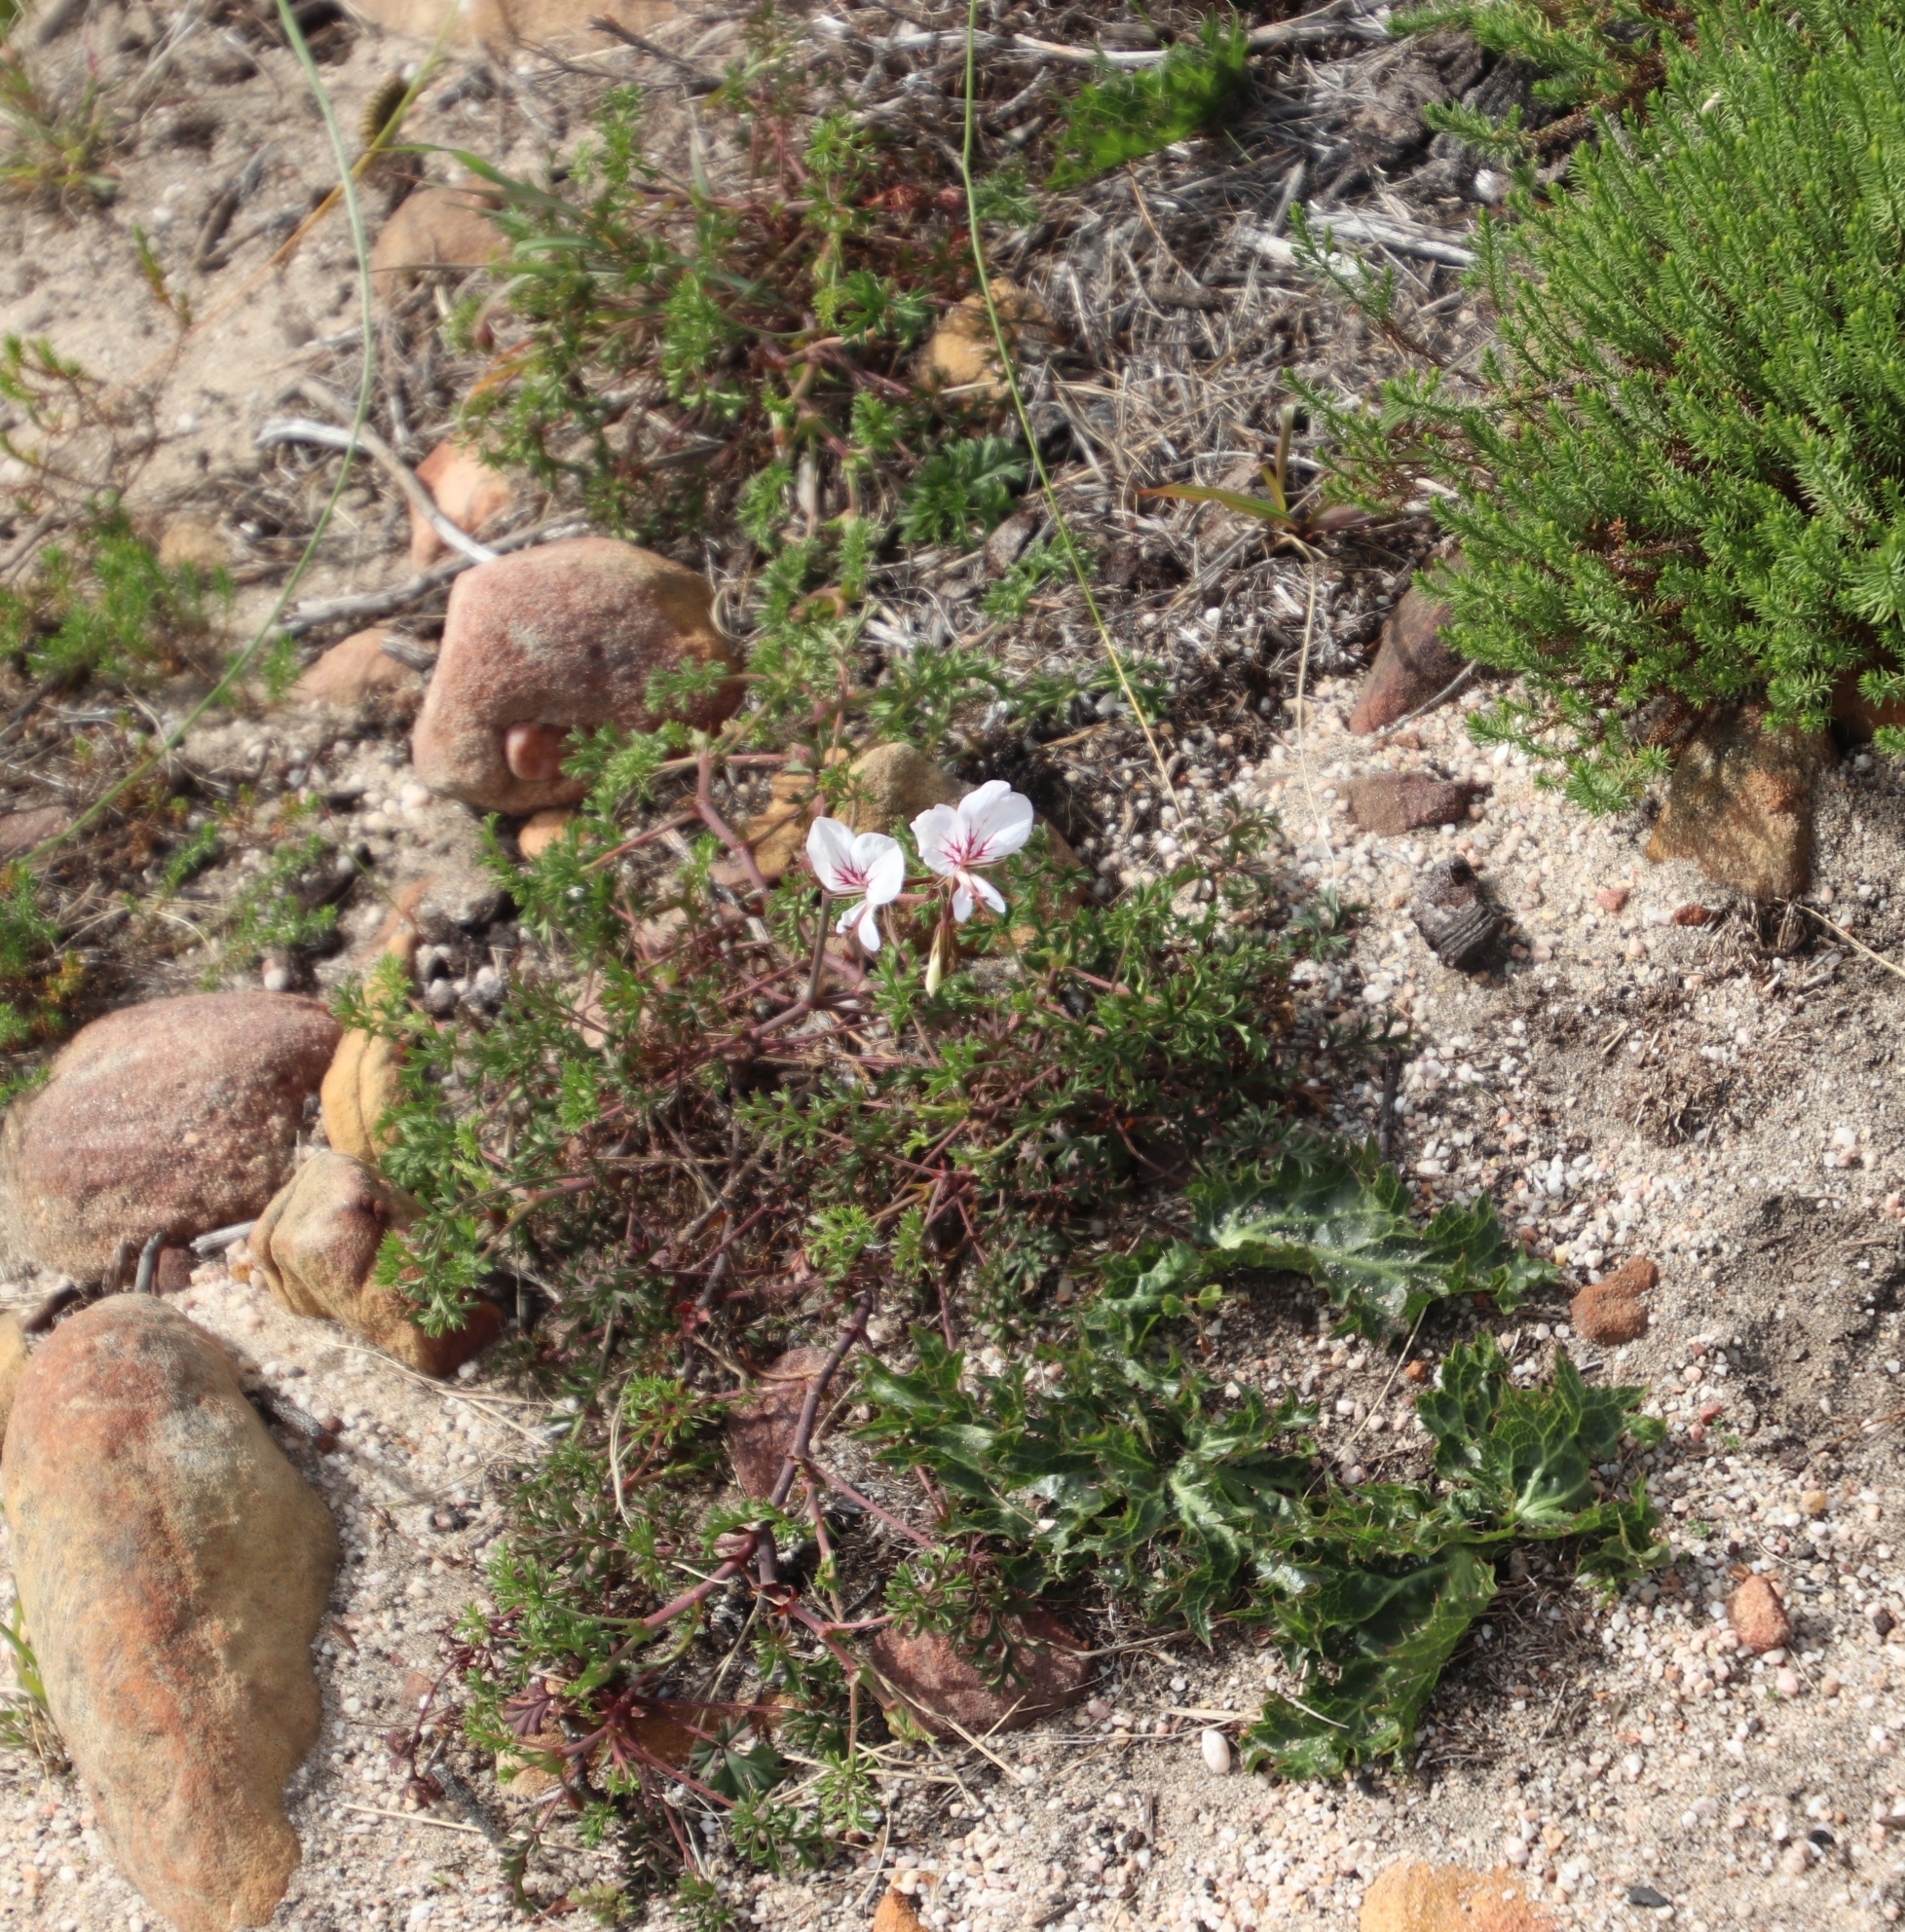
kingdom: Plantae
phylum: Tracheophyta
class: Magnoliopsida
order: Geraniales
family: Geraniaceae
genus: Pelargonium
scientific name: Pelargonium myrrhifolium
